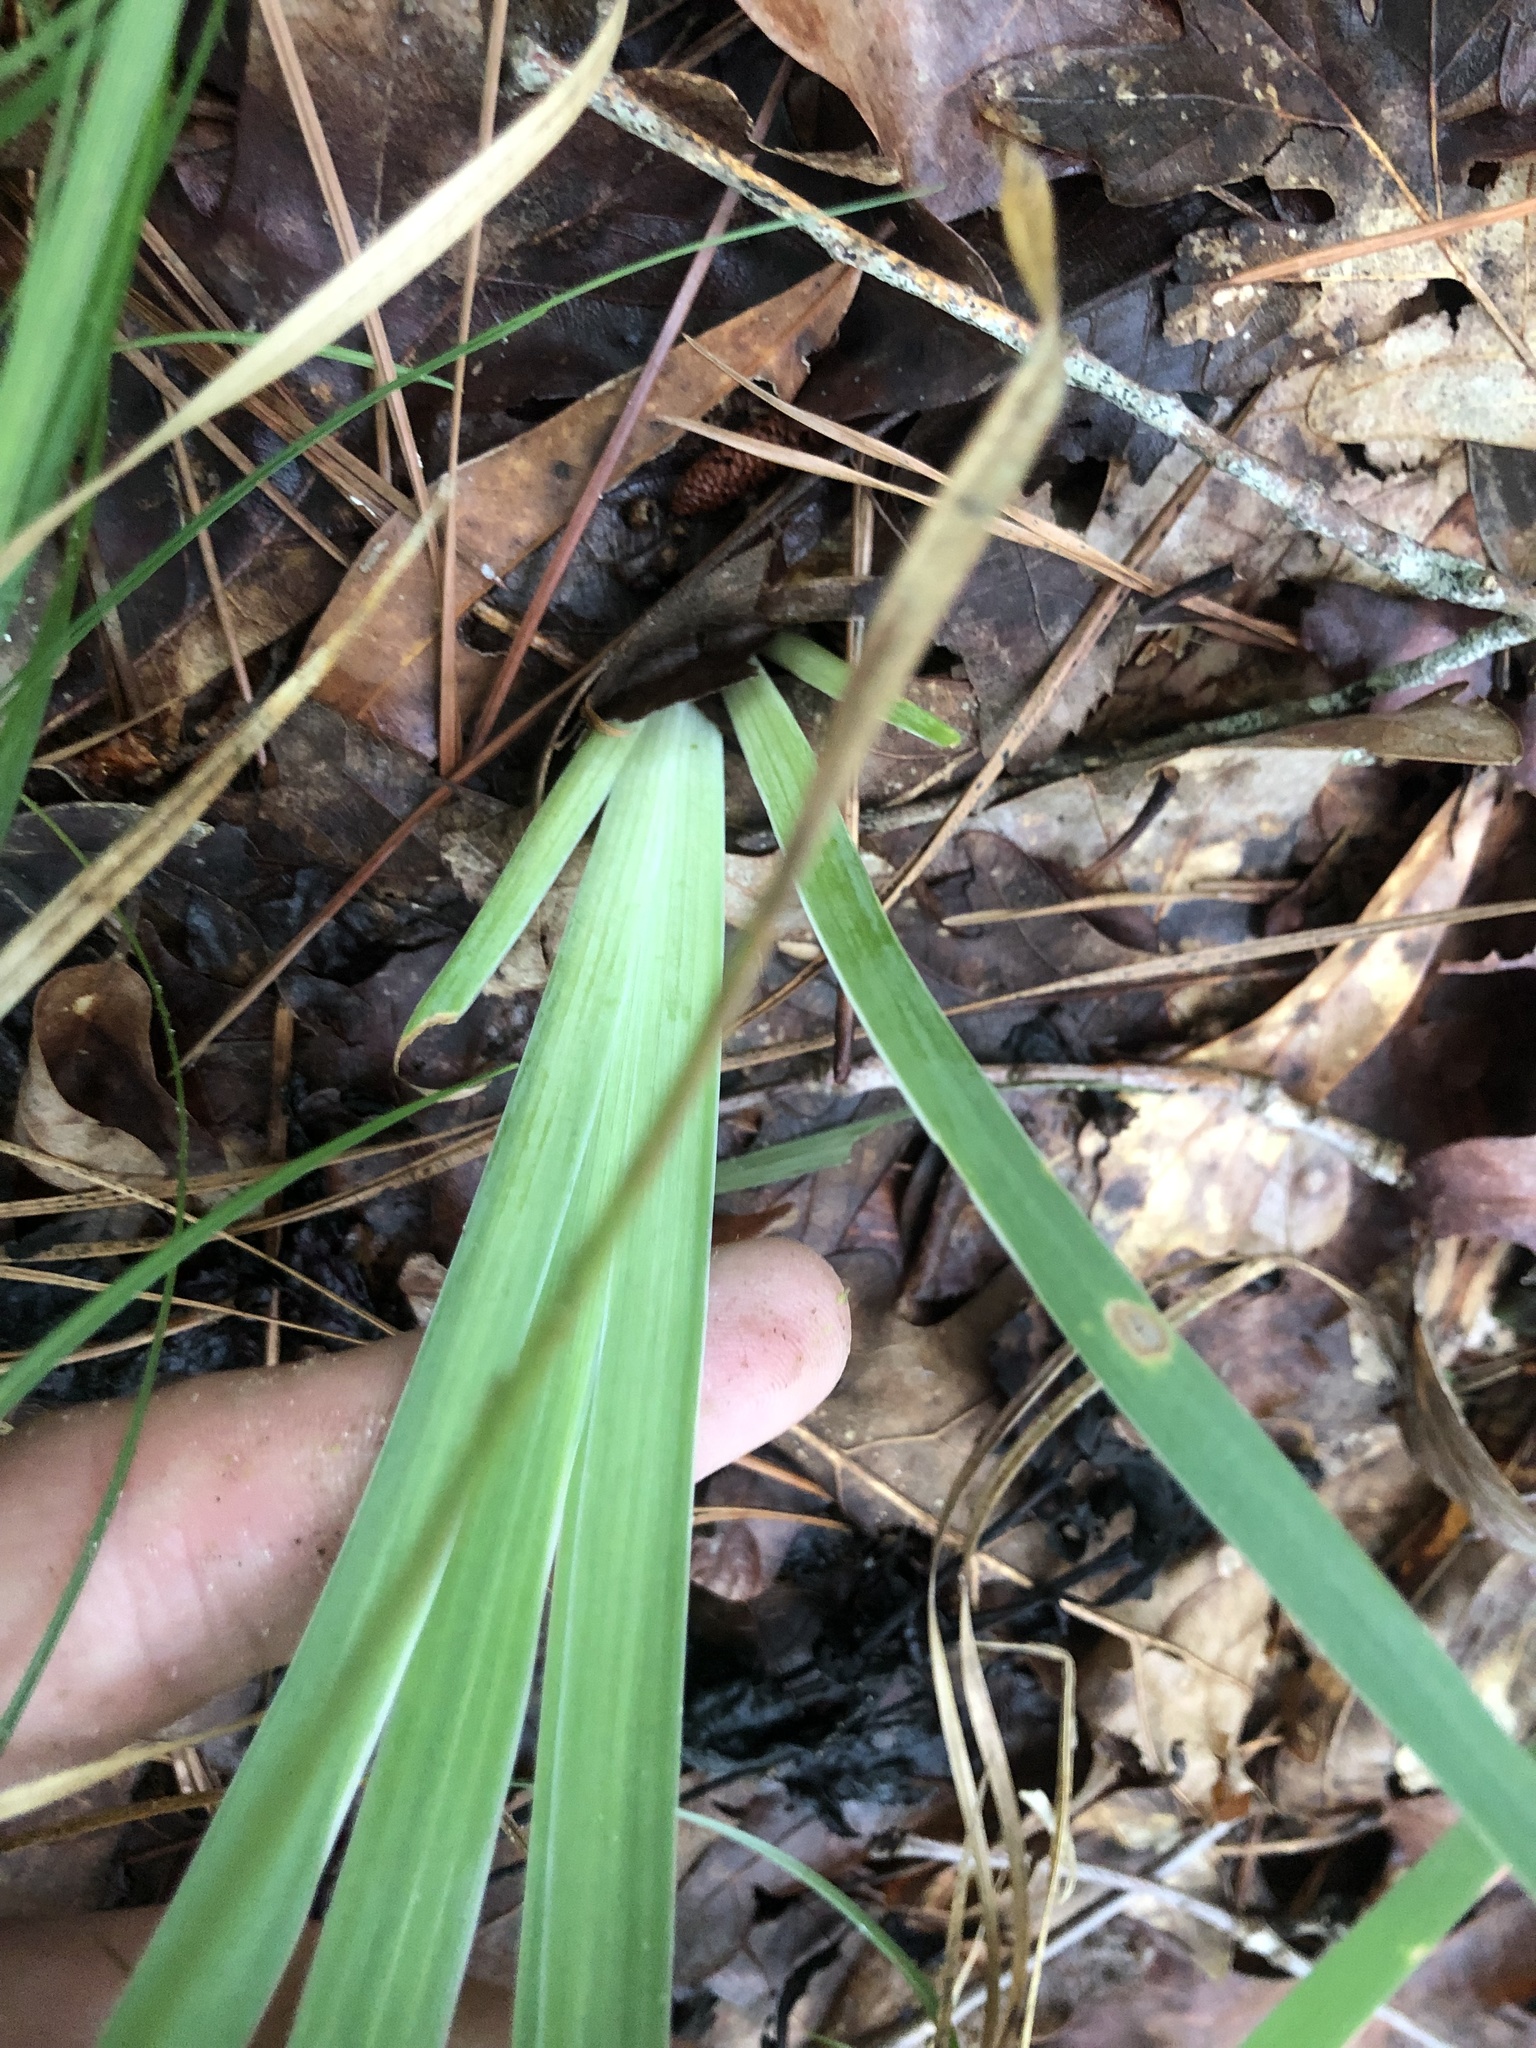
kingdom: Plantae
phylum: Tracheophyta
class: Liliopsida
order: Asparagales
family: Iridaceae
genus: Iris
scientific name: Iris verna
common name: Dwarf iris
